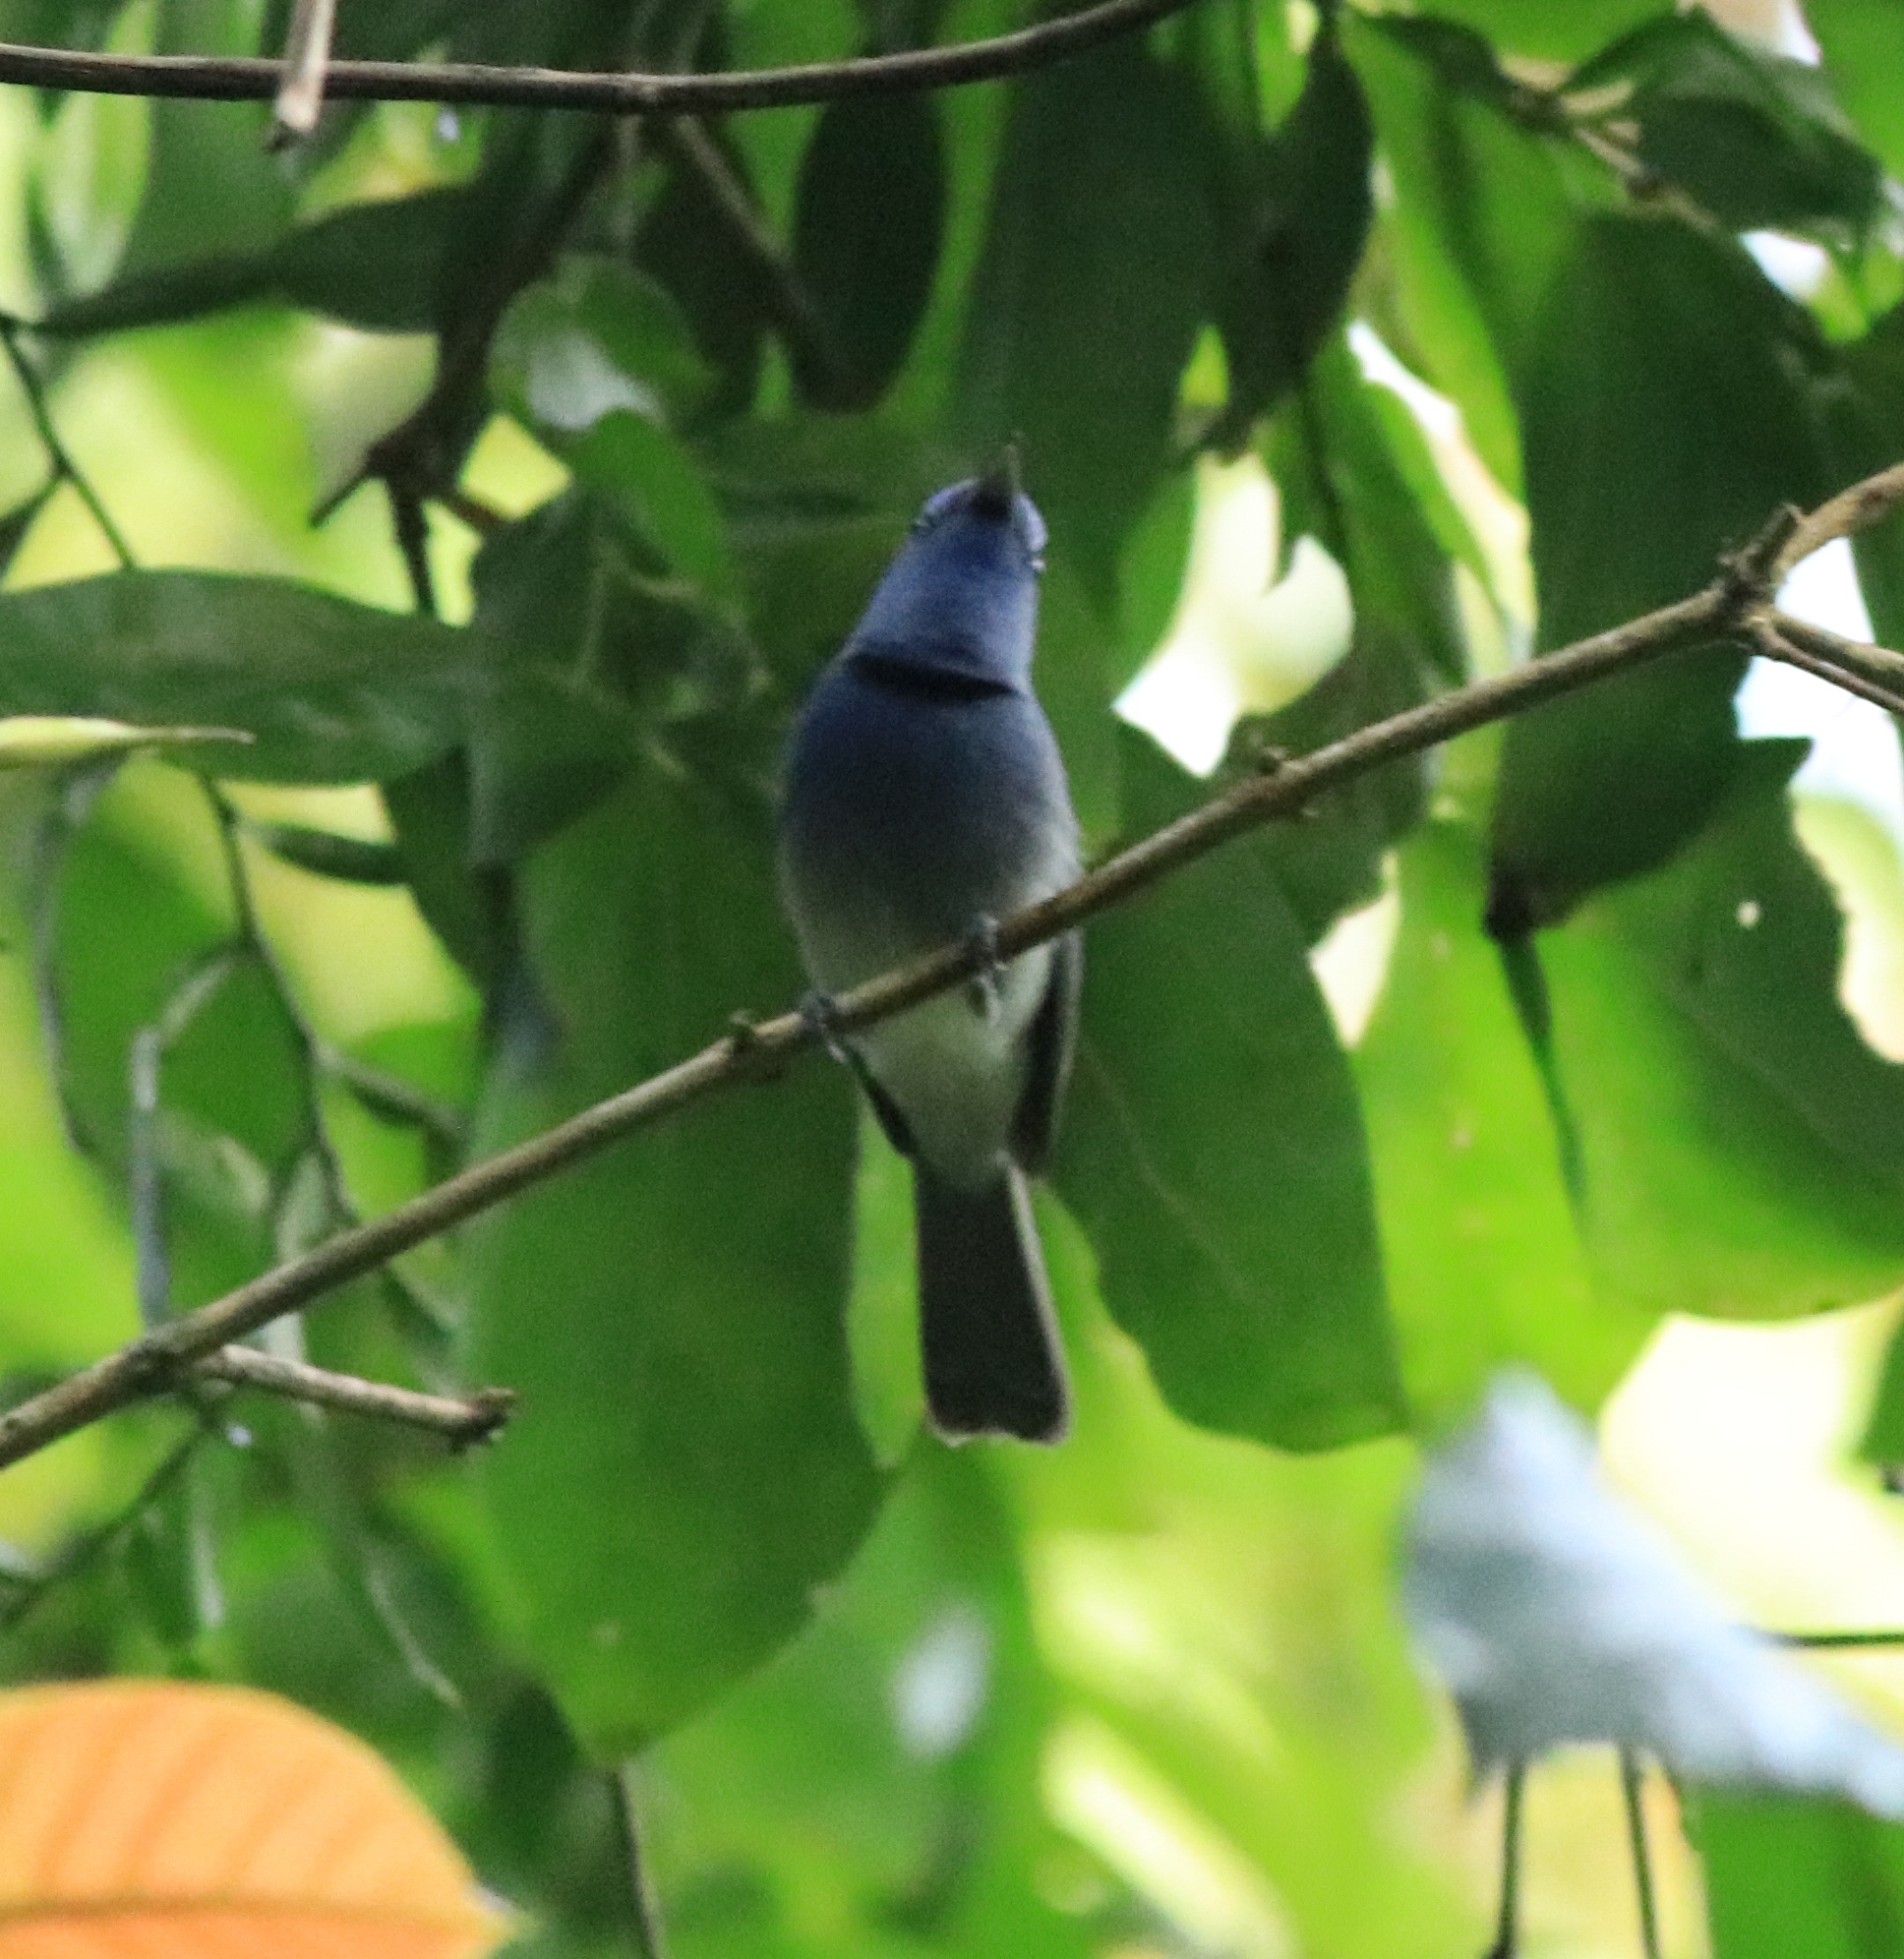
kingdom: Animalia
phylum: Chordata
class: Aves
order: Passeriformes
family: Monarchidae
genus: Hypothymis
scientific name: Hypothymis azurea
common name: Black-naped monarch
